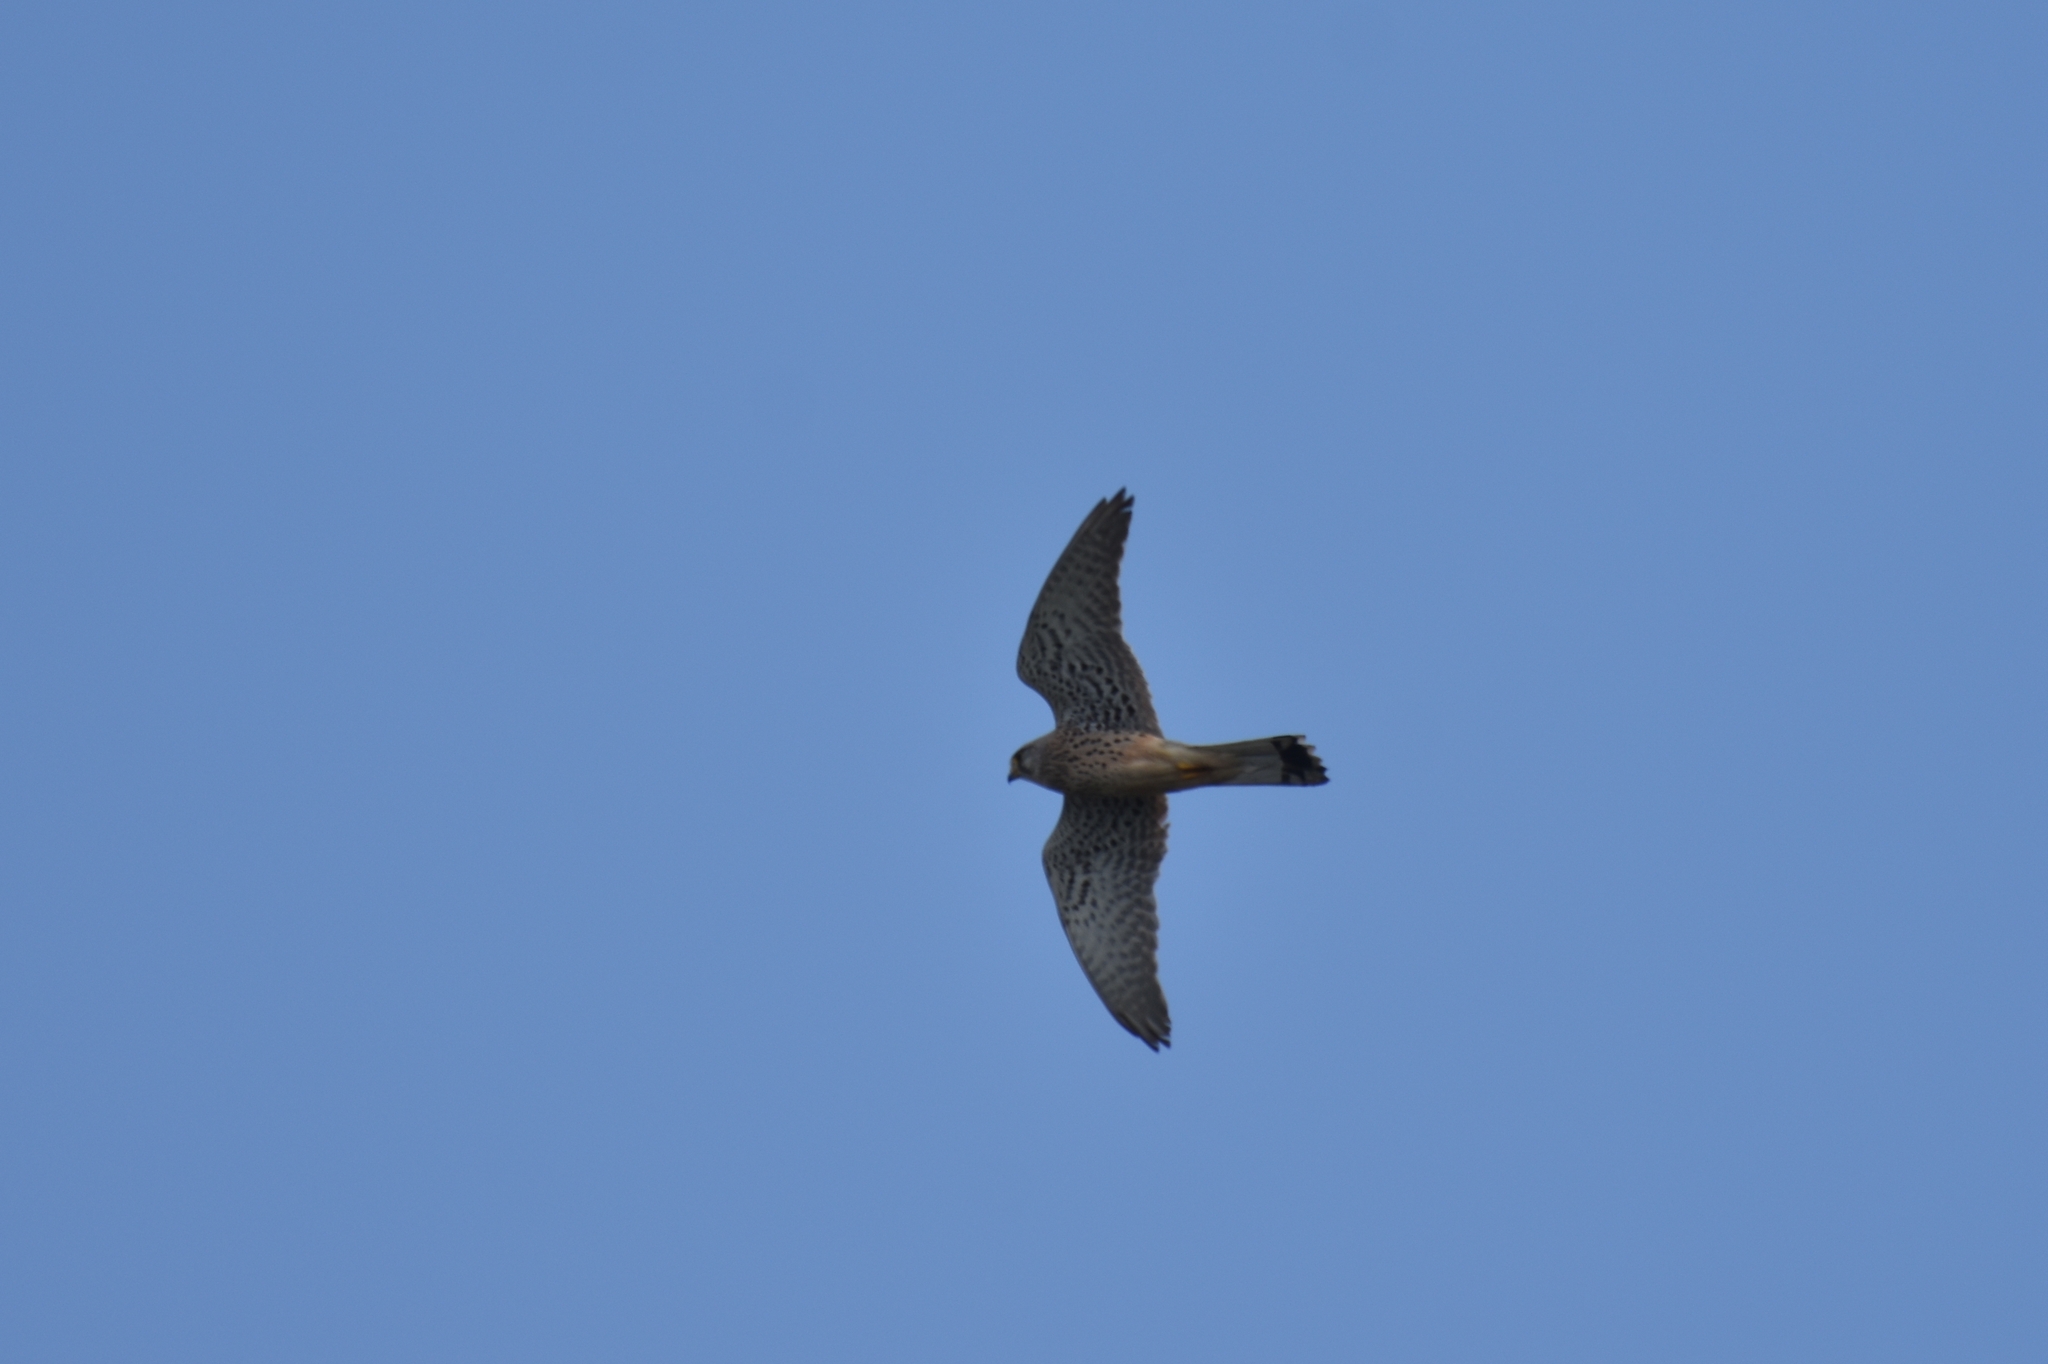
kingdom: Animalia
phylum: Chordata
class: Aves
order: Falconiformes
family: Falconidae
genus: Falco
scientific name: Falco tinnunculus
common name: Common kestrel
